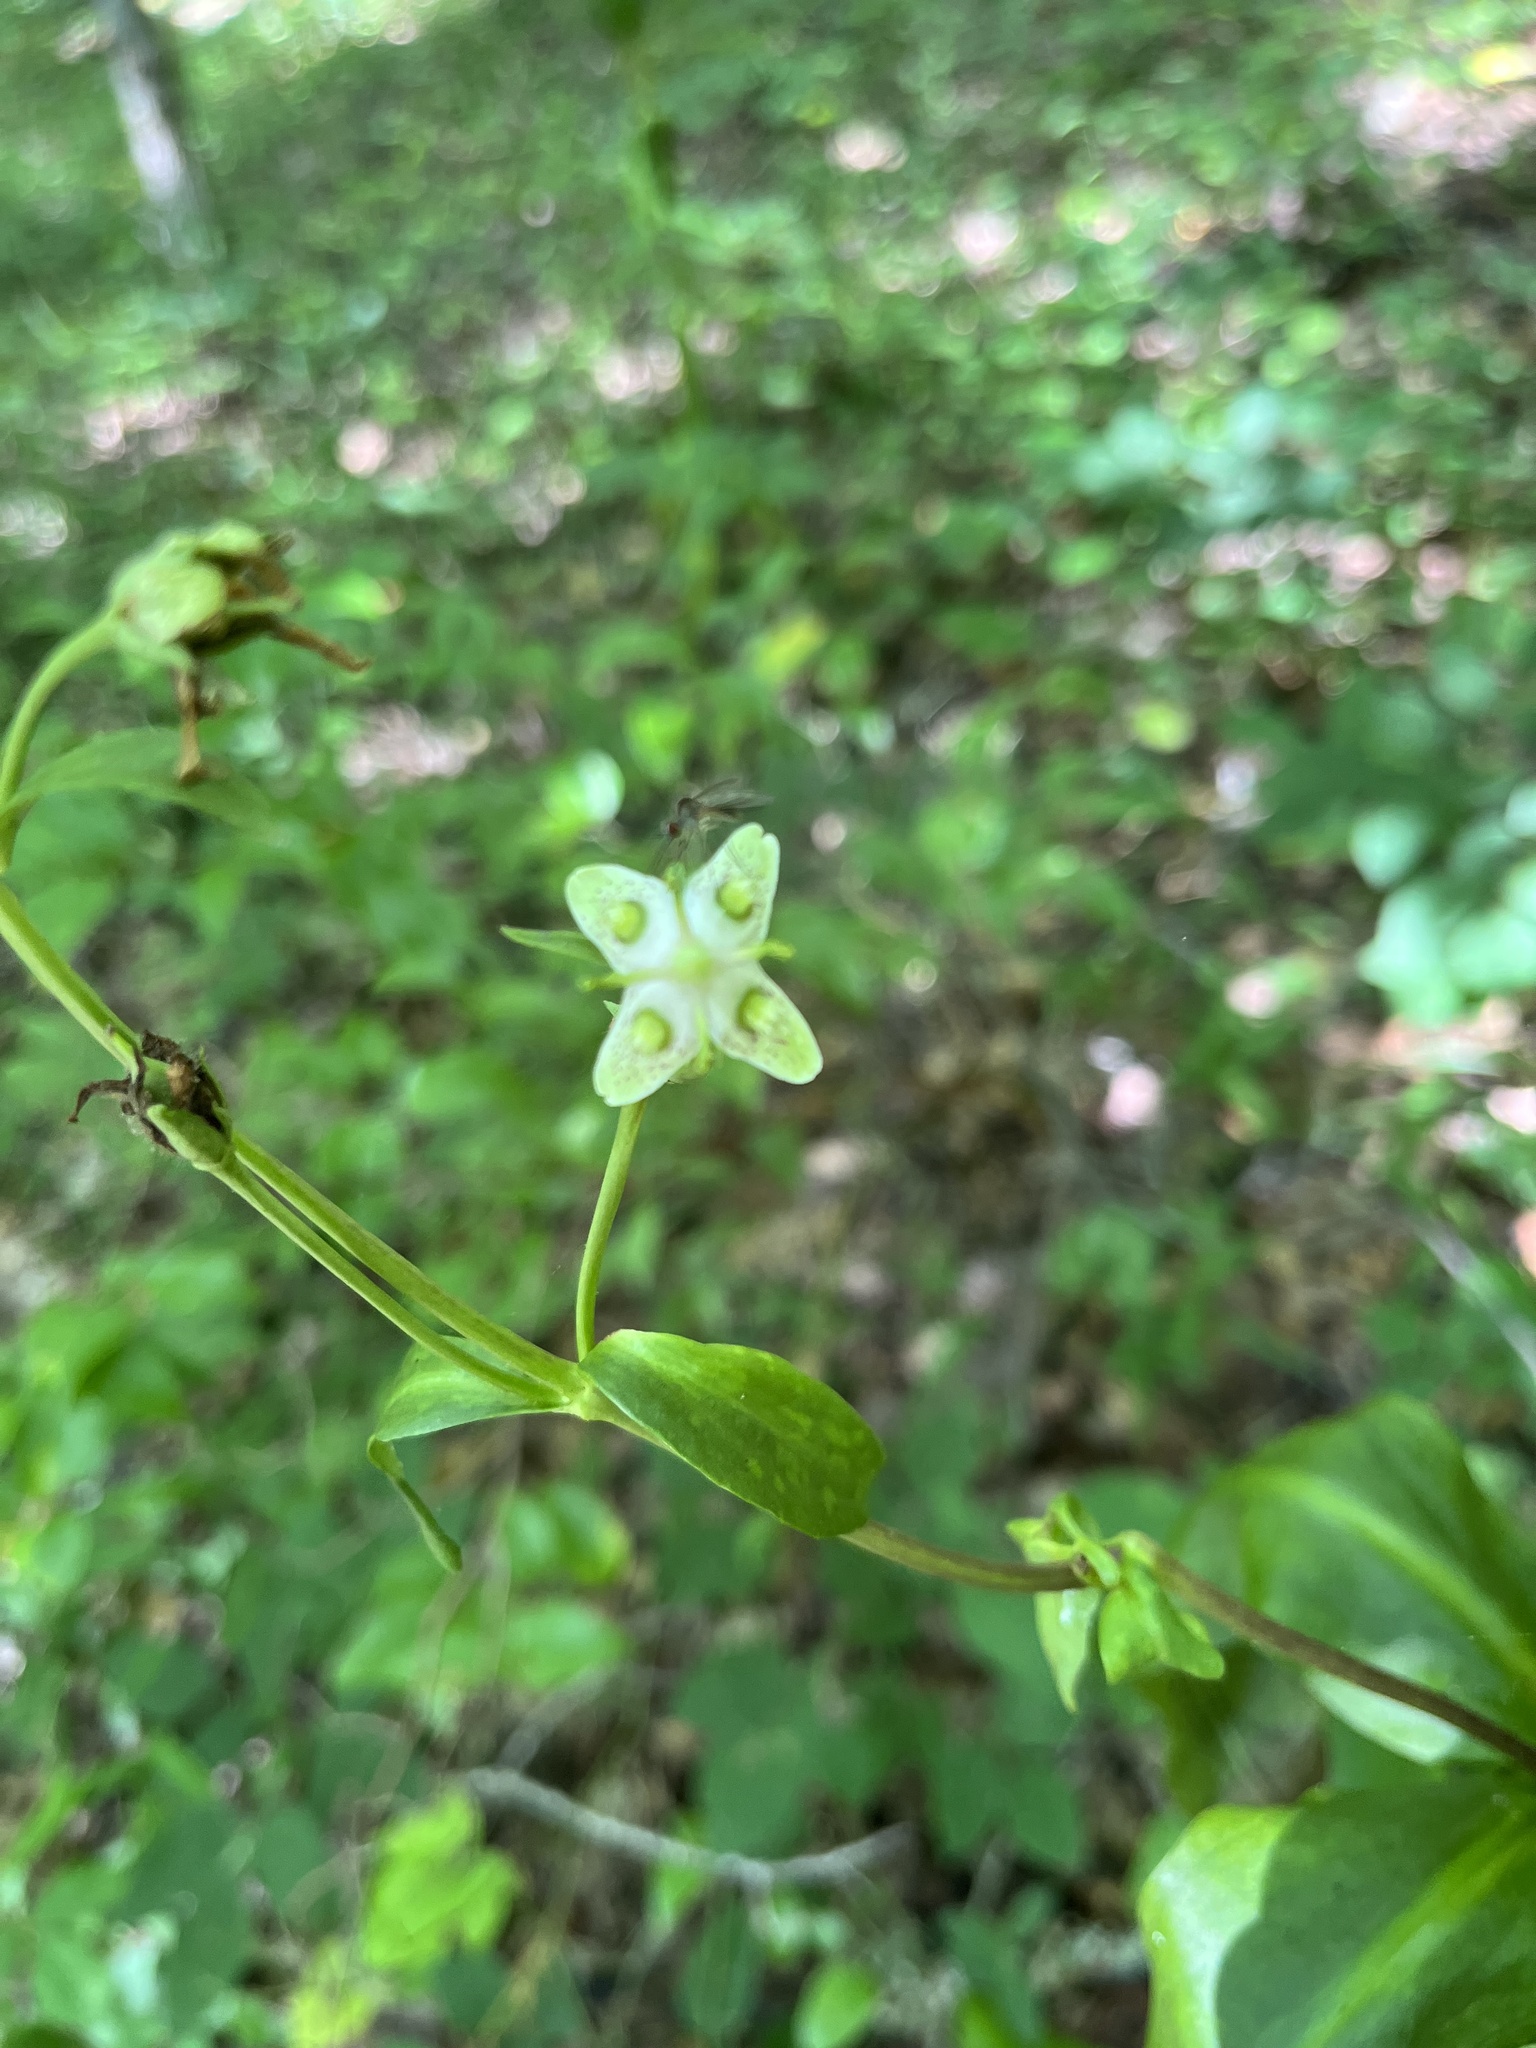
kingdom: Plantae
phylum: Tracheophyta
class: Magnoliopsida
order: Gentianales
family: Gentianaceae
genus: Frasera
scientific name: Frasera caroliniensis
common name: American columbo
